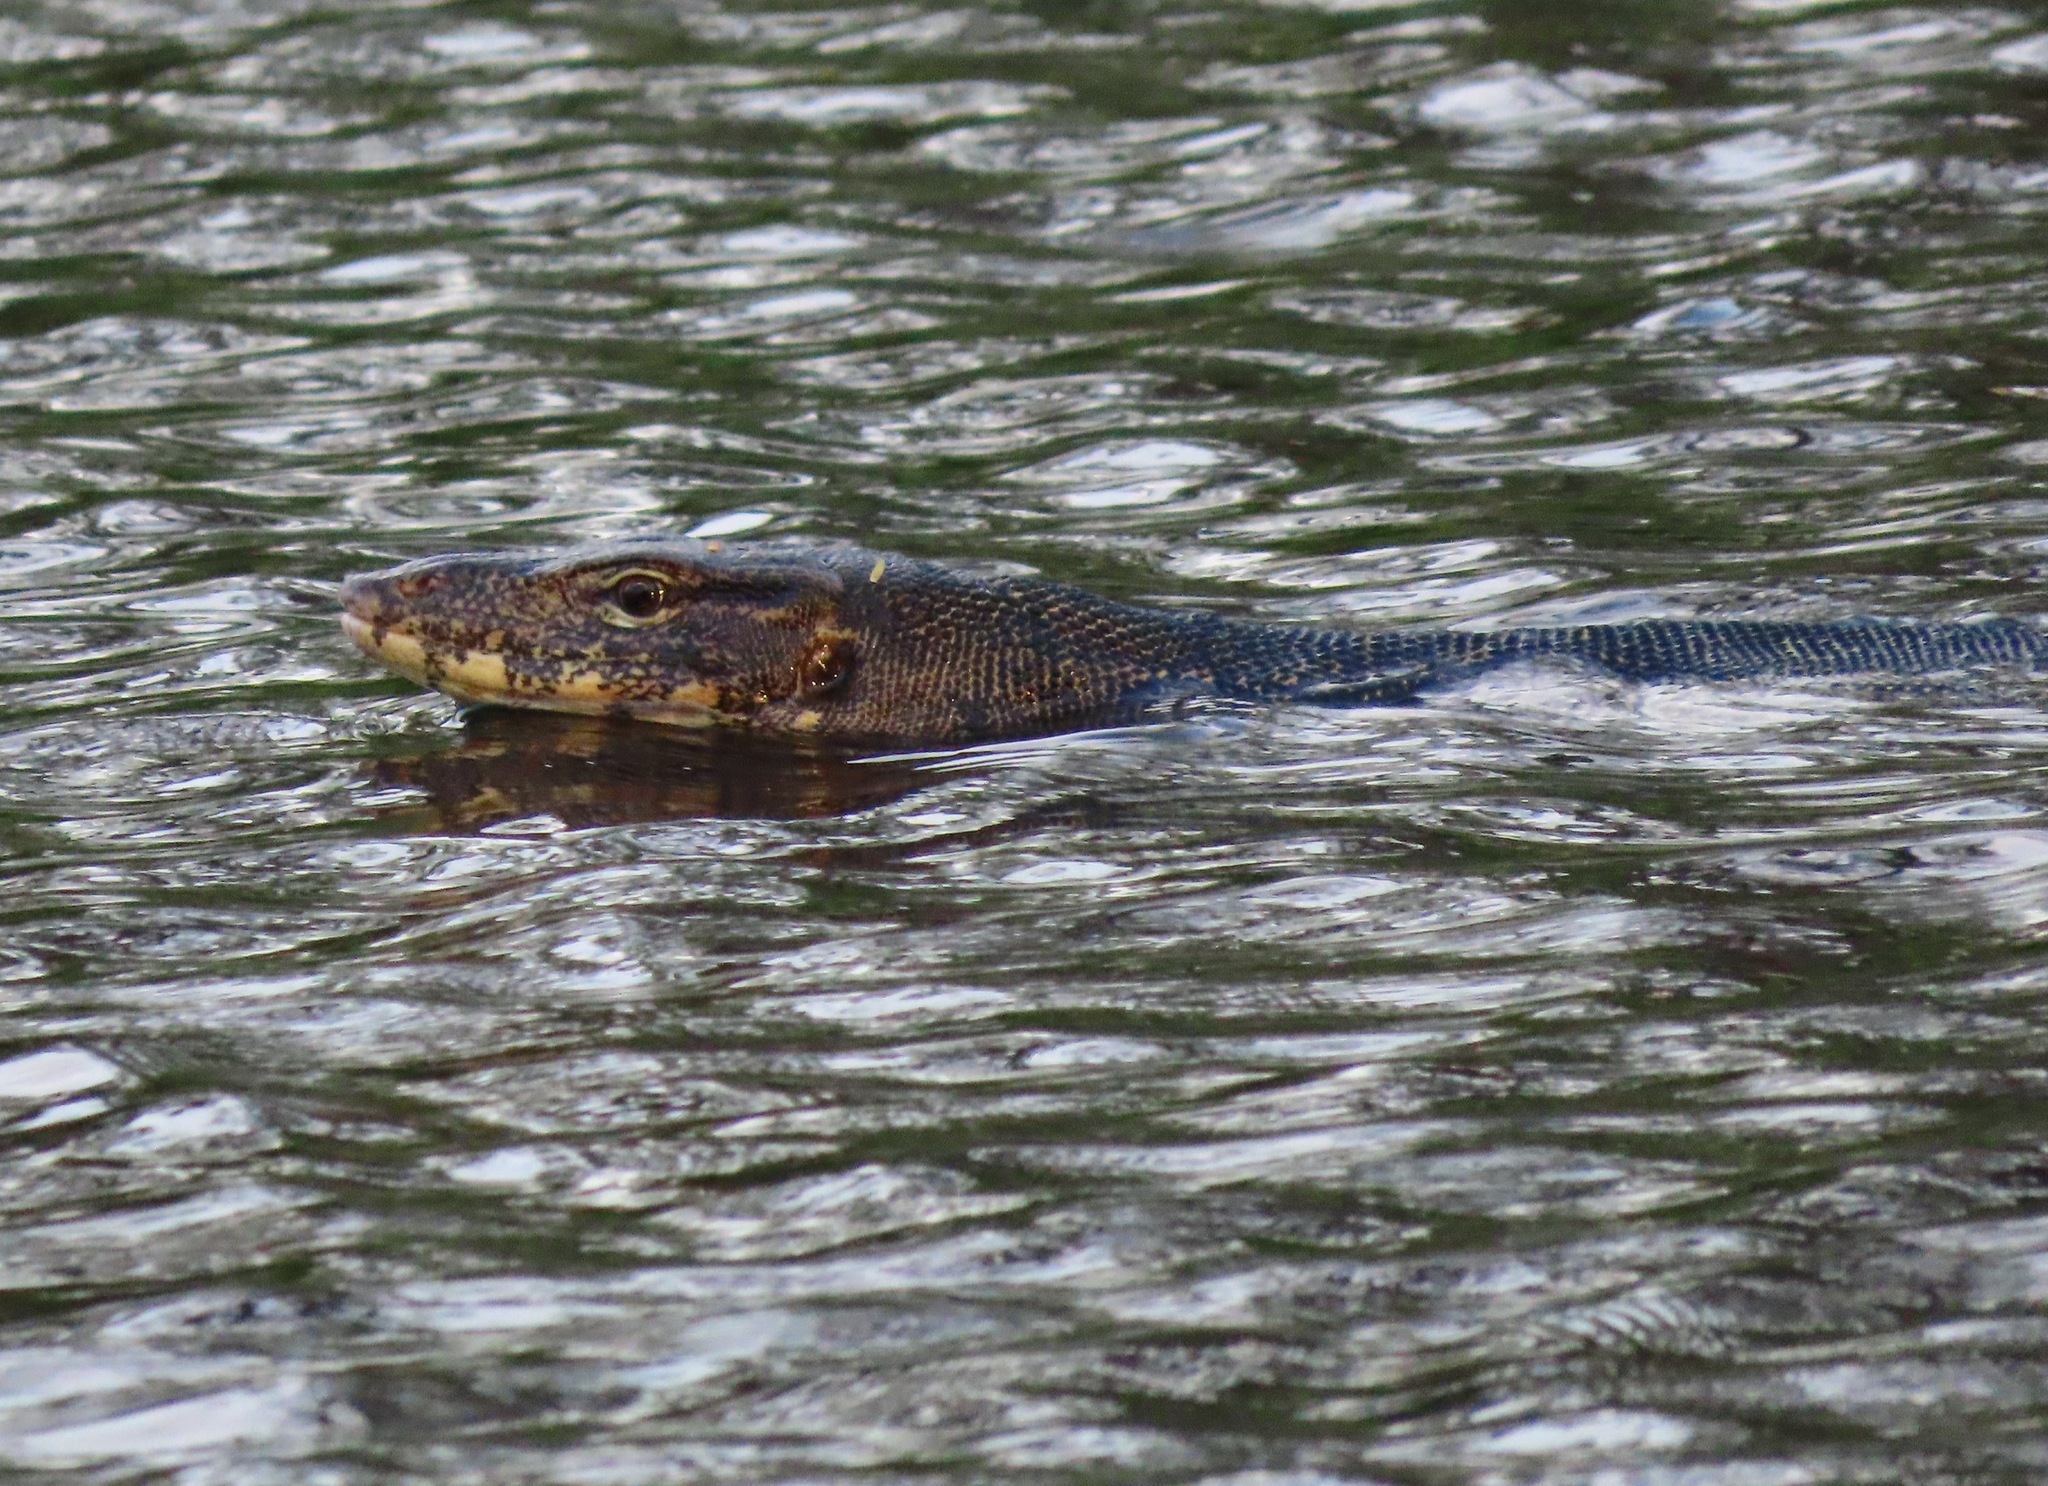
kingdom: Animalia
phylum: Chordata
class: Squamata
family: Varanidae
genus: Varanus
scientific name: Varanus salvator
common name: Common water monitor
